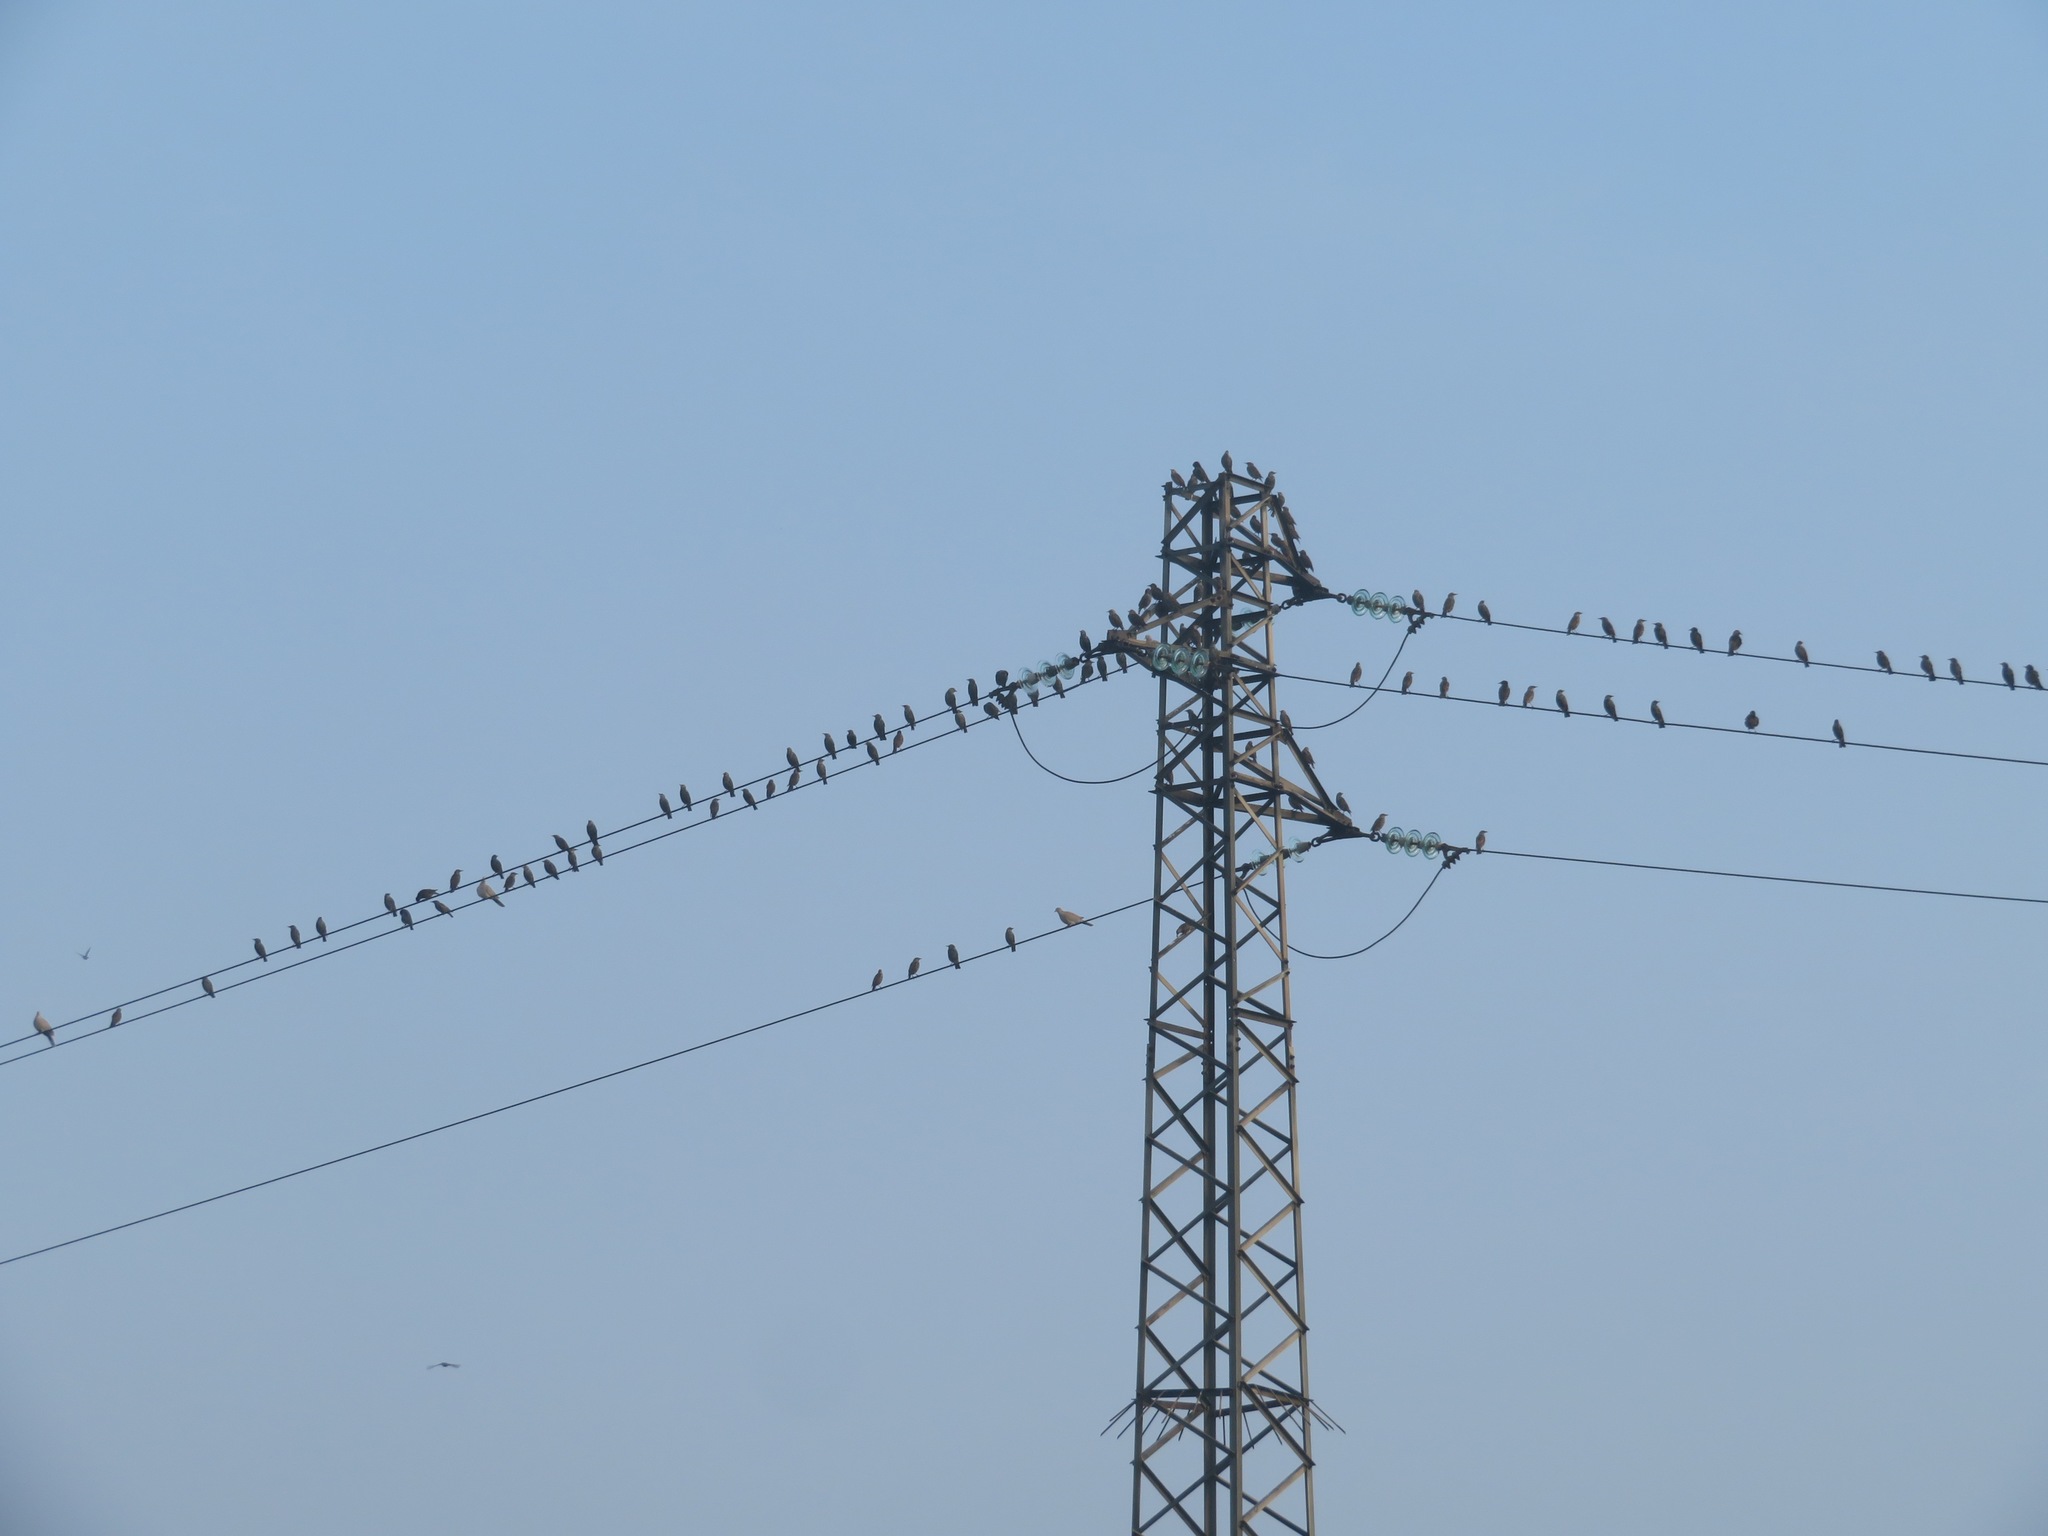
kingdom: Animalia
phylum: Chordata
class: Aves
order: Passeriformes
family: Sturnidae
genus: Sturnus
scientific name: Sturnus vulgaris
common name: Common starling
